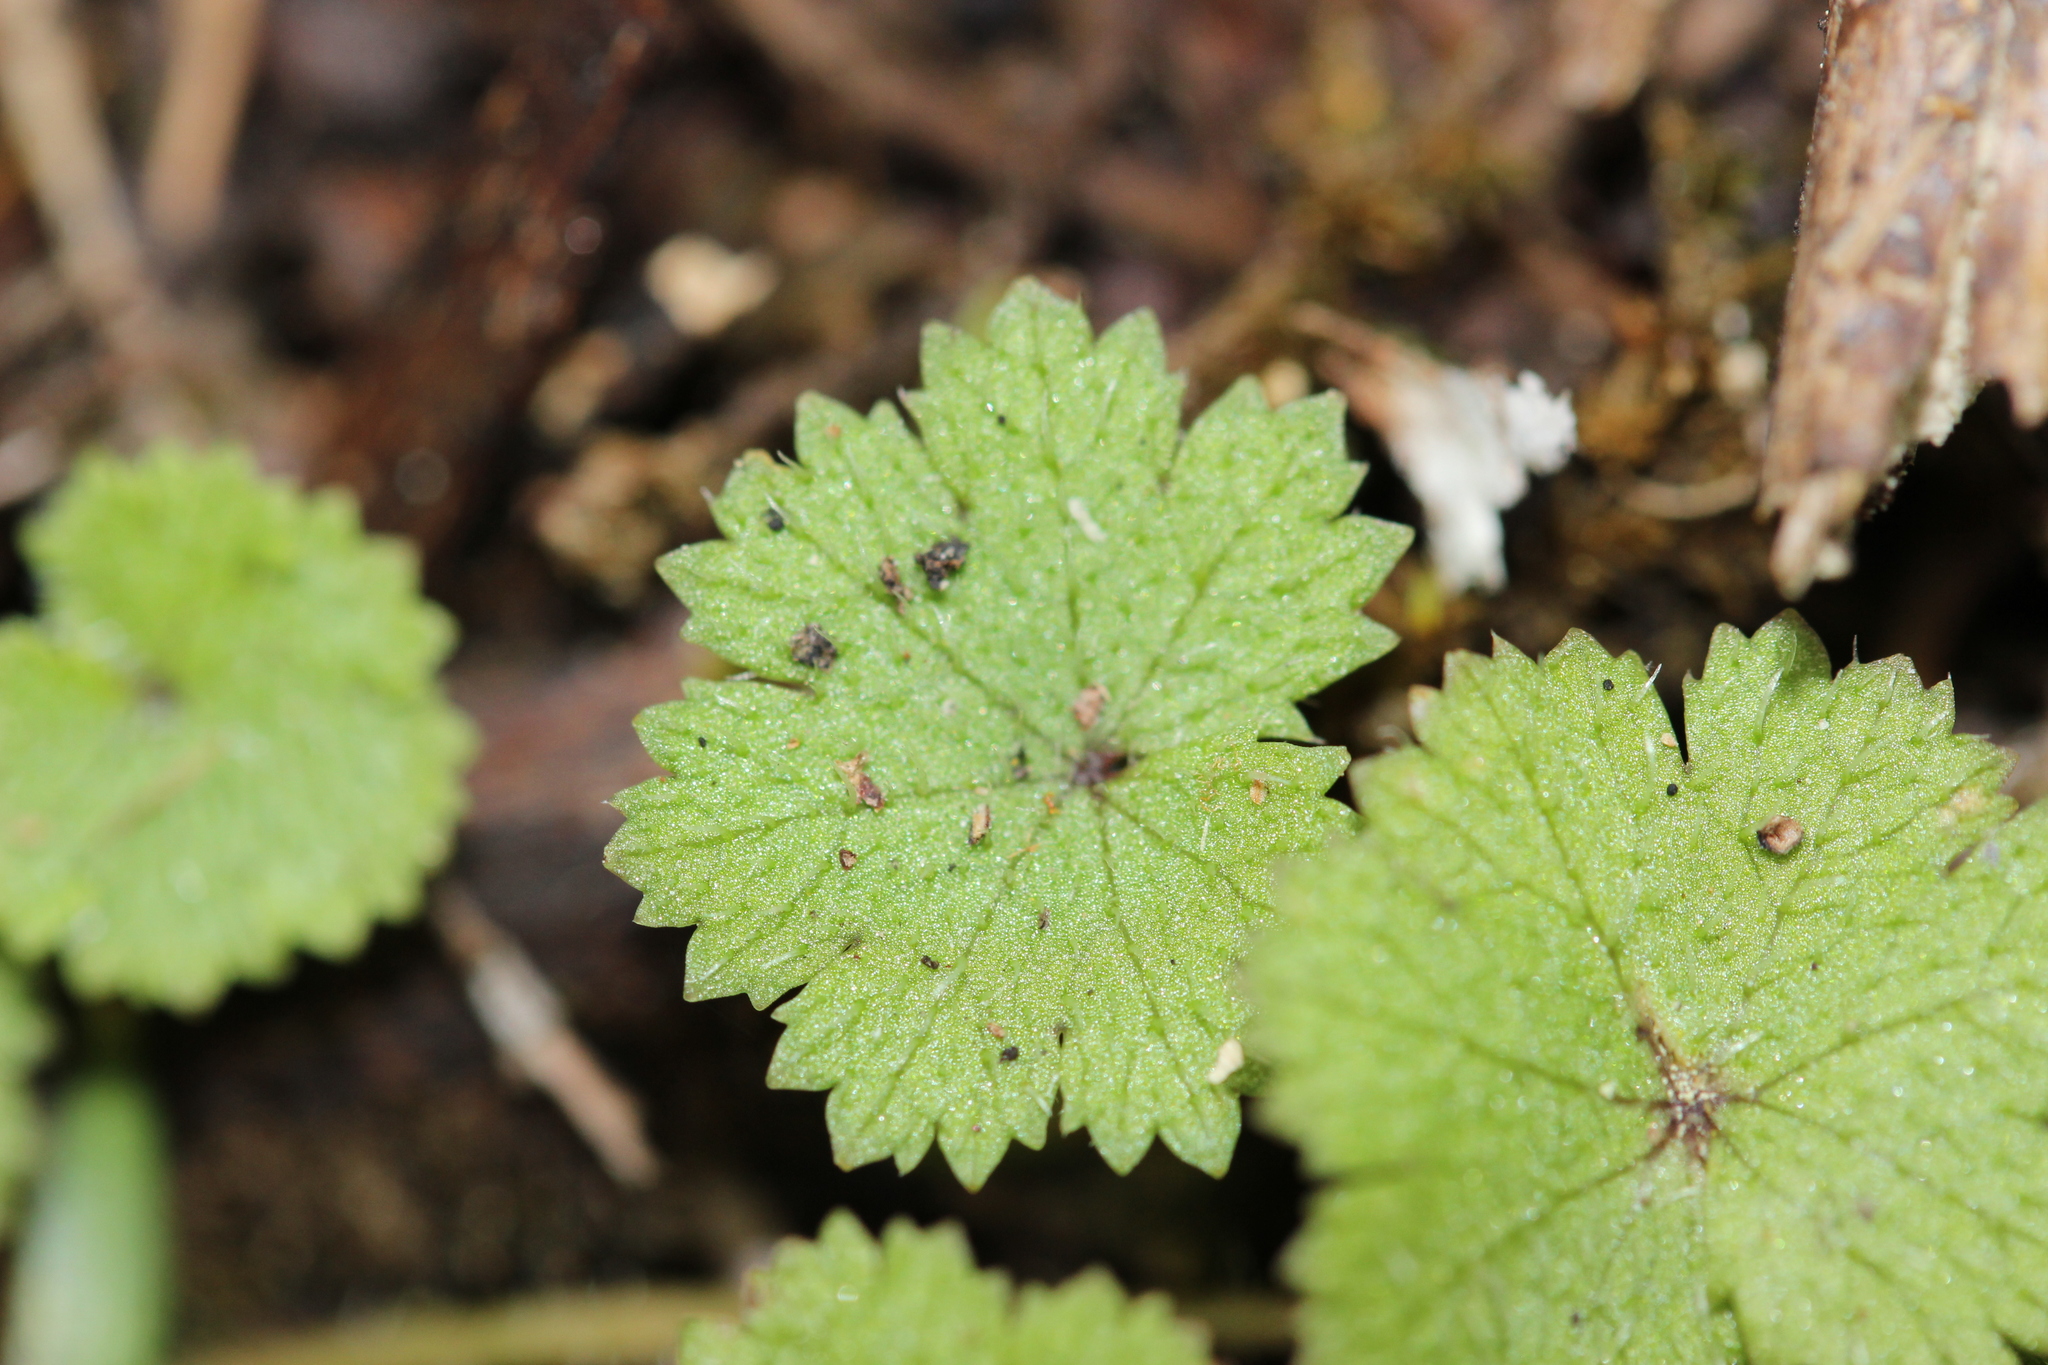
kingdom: Plantae
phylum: Tracheophyta
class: Magnoliopsida
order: Apiales
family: Araliaceae
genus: Hydrocotyle
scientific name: Hydrocotyle moschata
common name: Hairy pennywort
